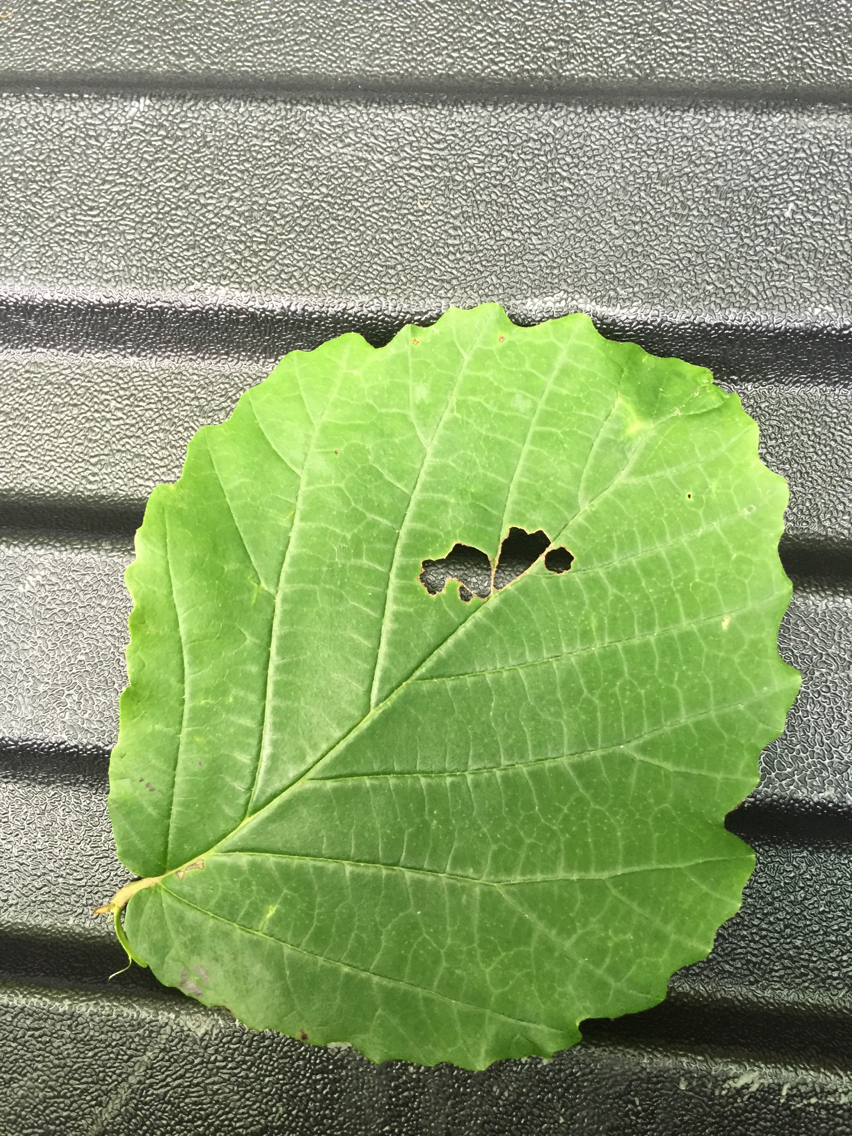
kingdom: Plantae
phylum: Tracheophyta
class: Magnoliopsida
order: Saxifragales
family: Hamamelidaceae
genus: Hamamelis
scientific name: Hamamelis virginiana
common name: Witch-hazel
